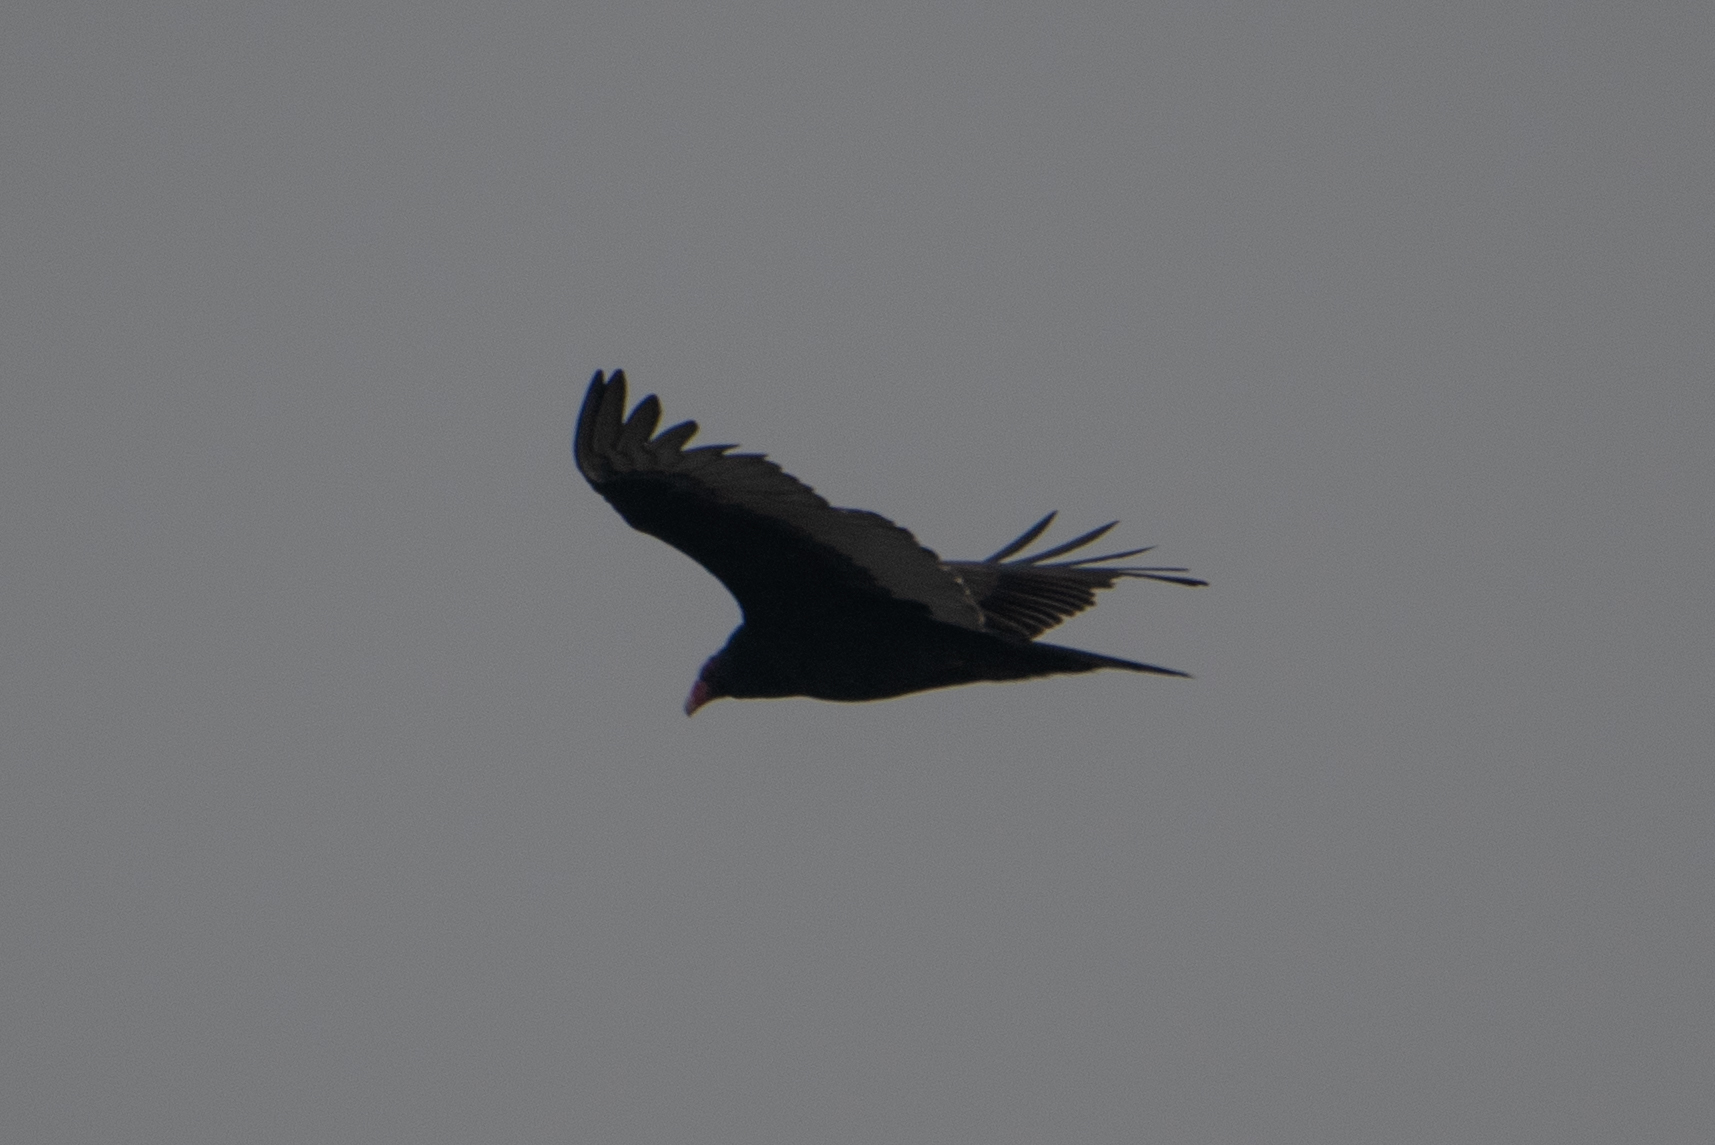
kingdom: Animalia
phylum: Chordata
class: Aves
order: Accipitriformes
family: Cathartidae
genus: Cathartes
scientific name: Cathartes aura
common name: Turkey vulture
